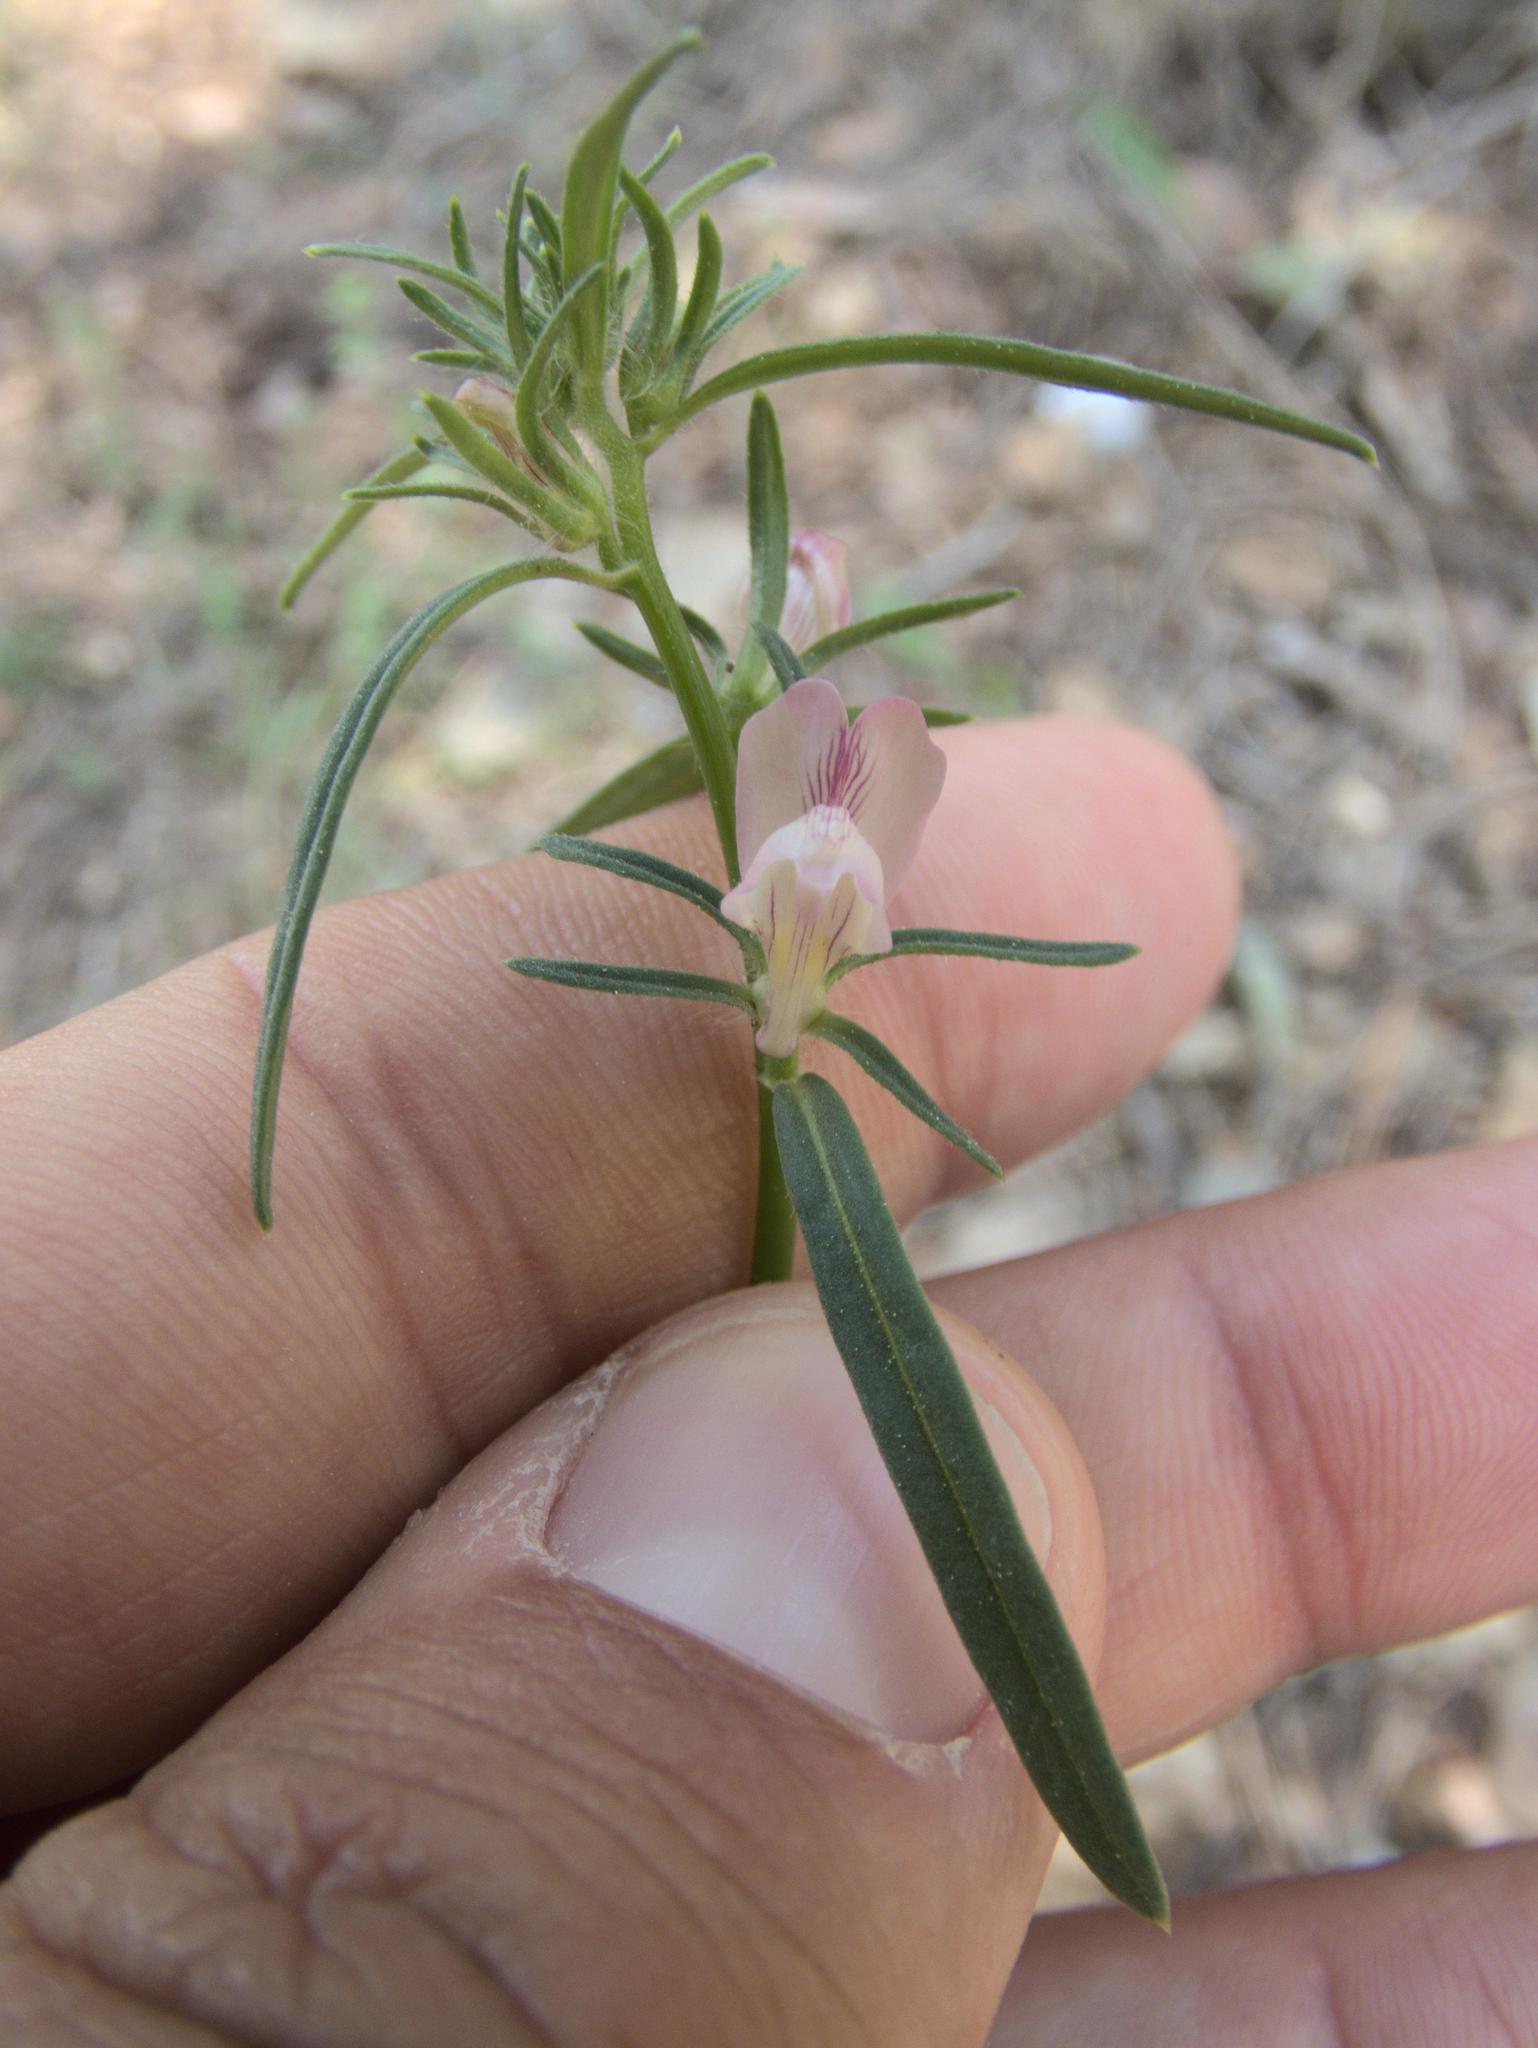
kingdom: Plantae
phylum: Tracheophyta
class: Magnoliopsida
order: Lamiales
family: Plantaginaceae
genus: Misopates
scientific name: Misopates orontium
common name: Weasel's-snout
